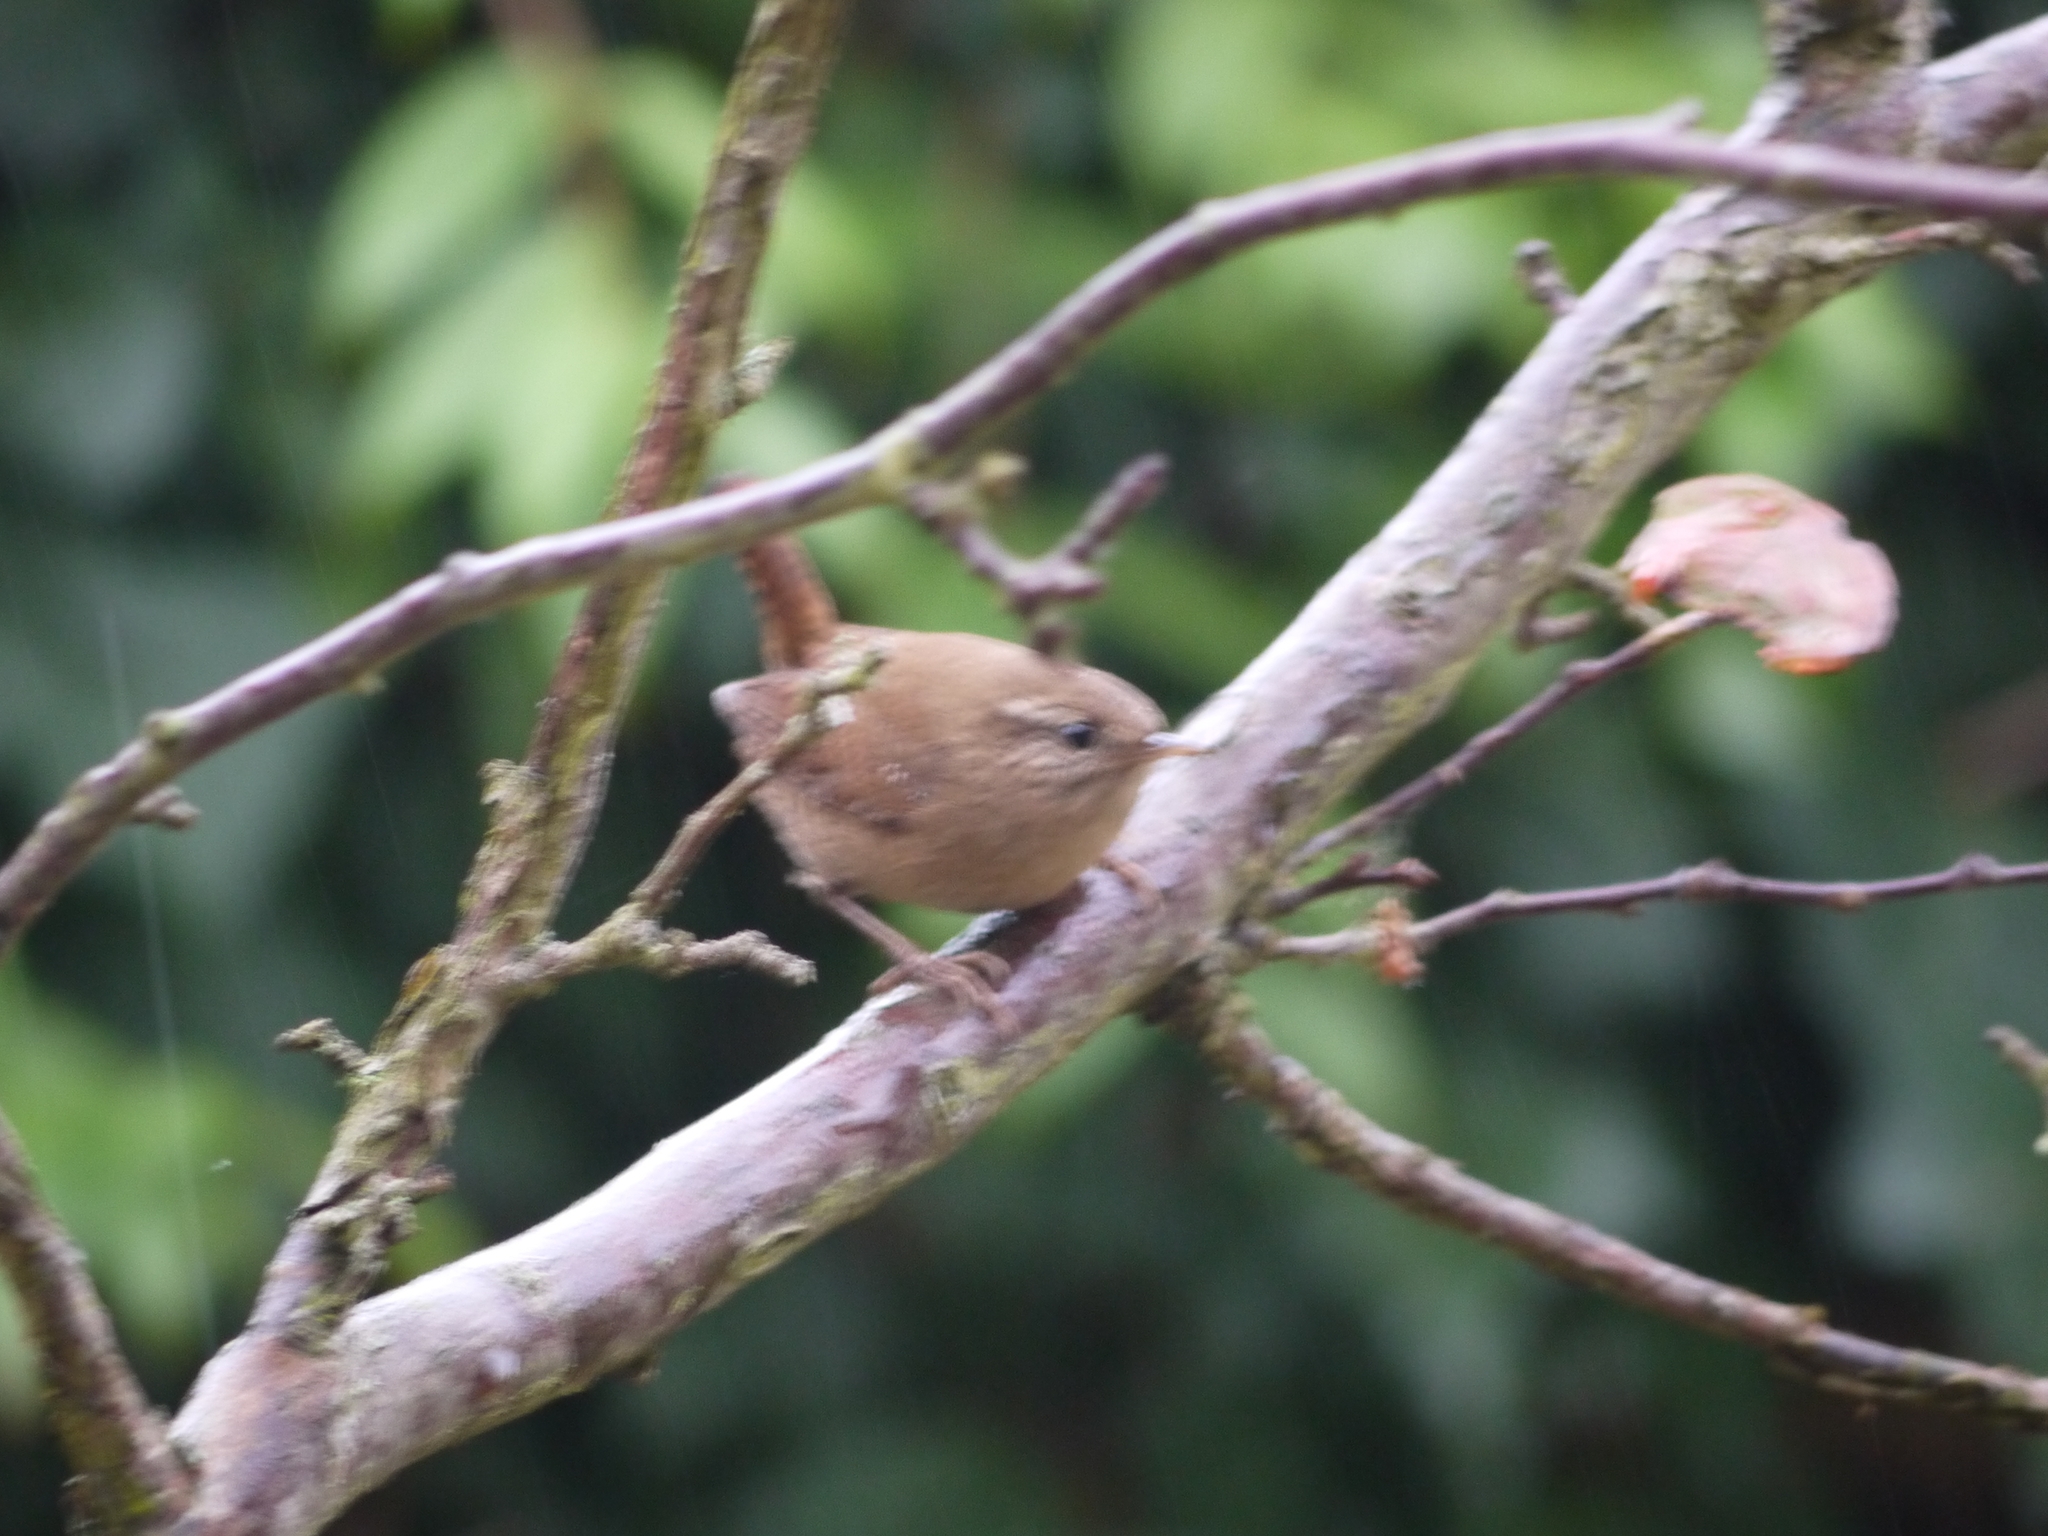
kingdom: Animalia
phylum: Chordata
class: Aves
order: Passeriformes
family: Troglodytidae
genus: Troglodytes
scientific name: Troglodytes troglodytes
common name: Eurasian wren
